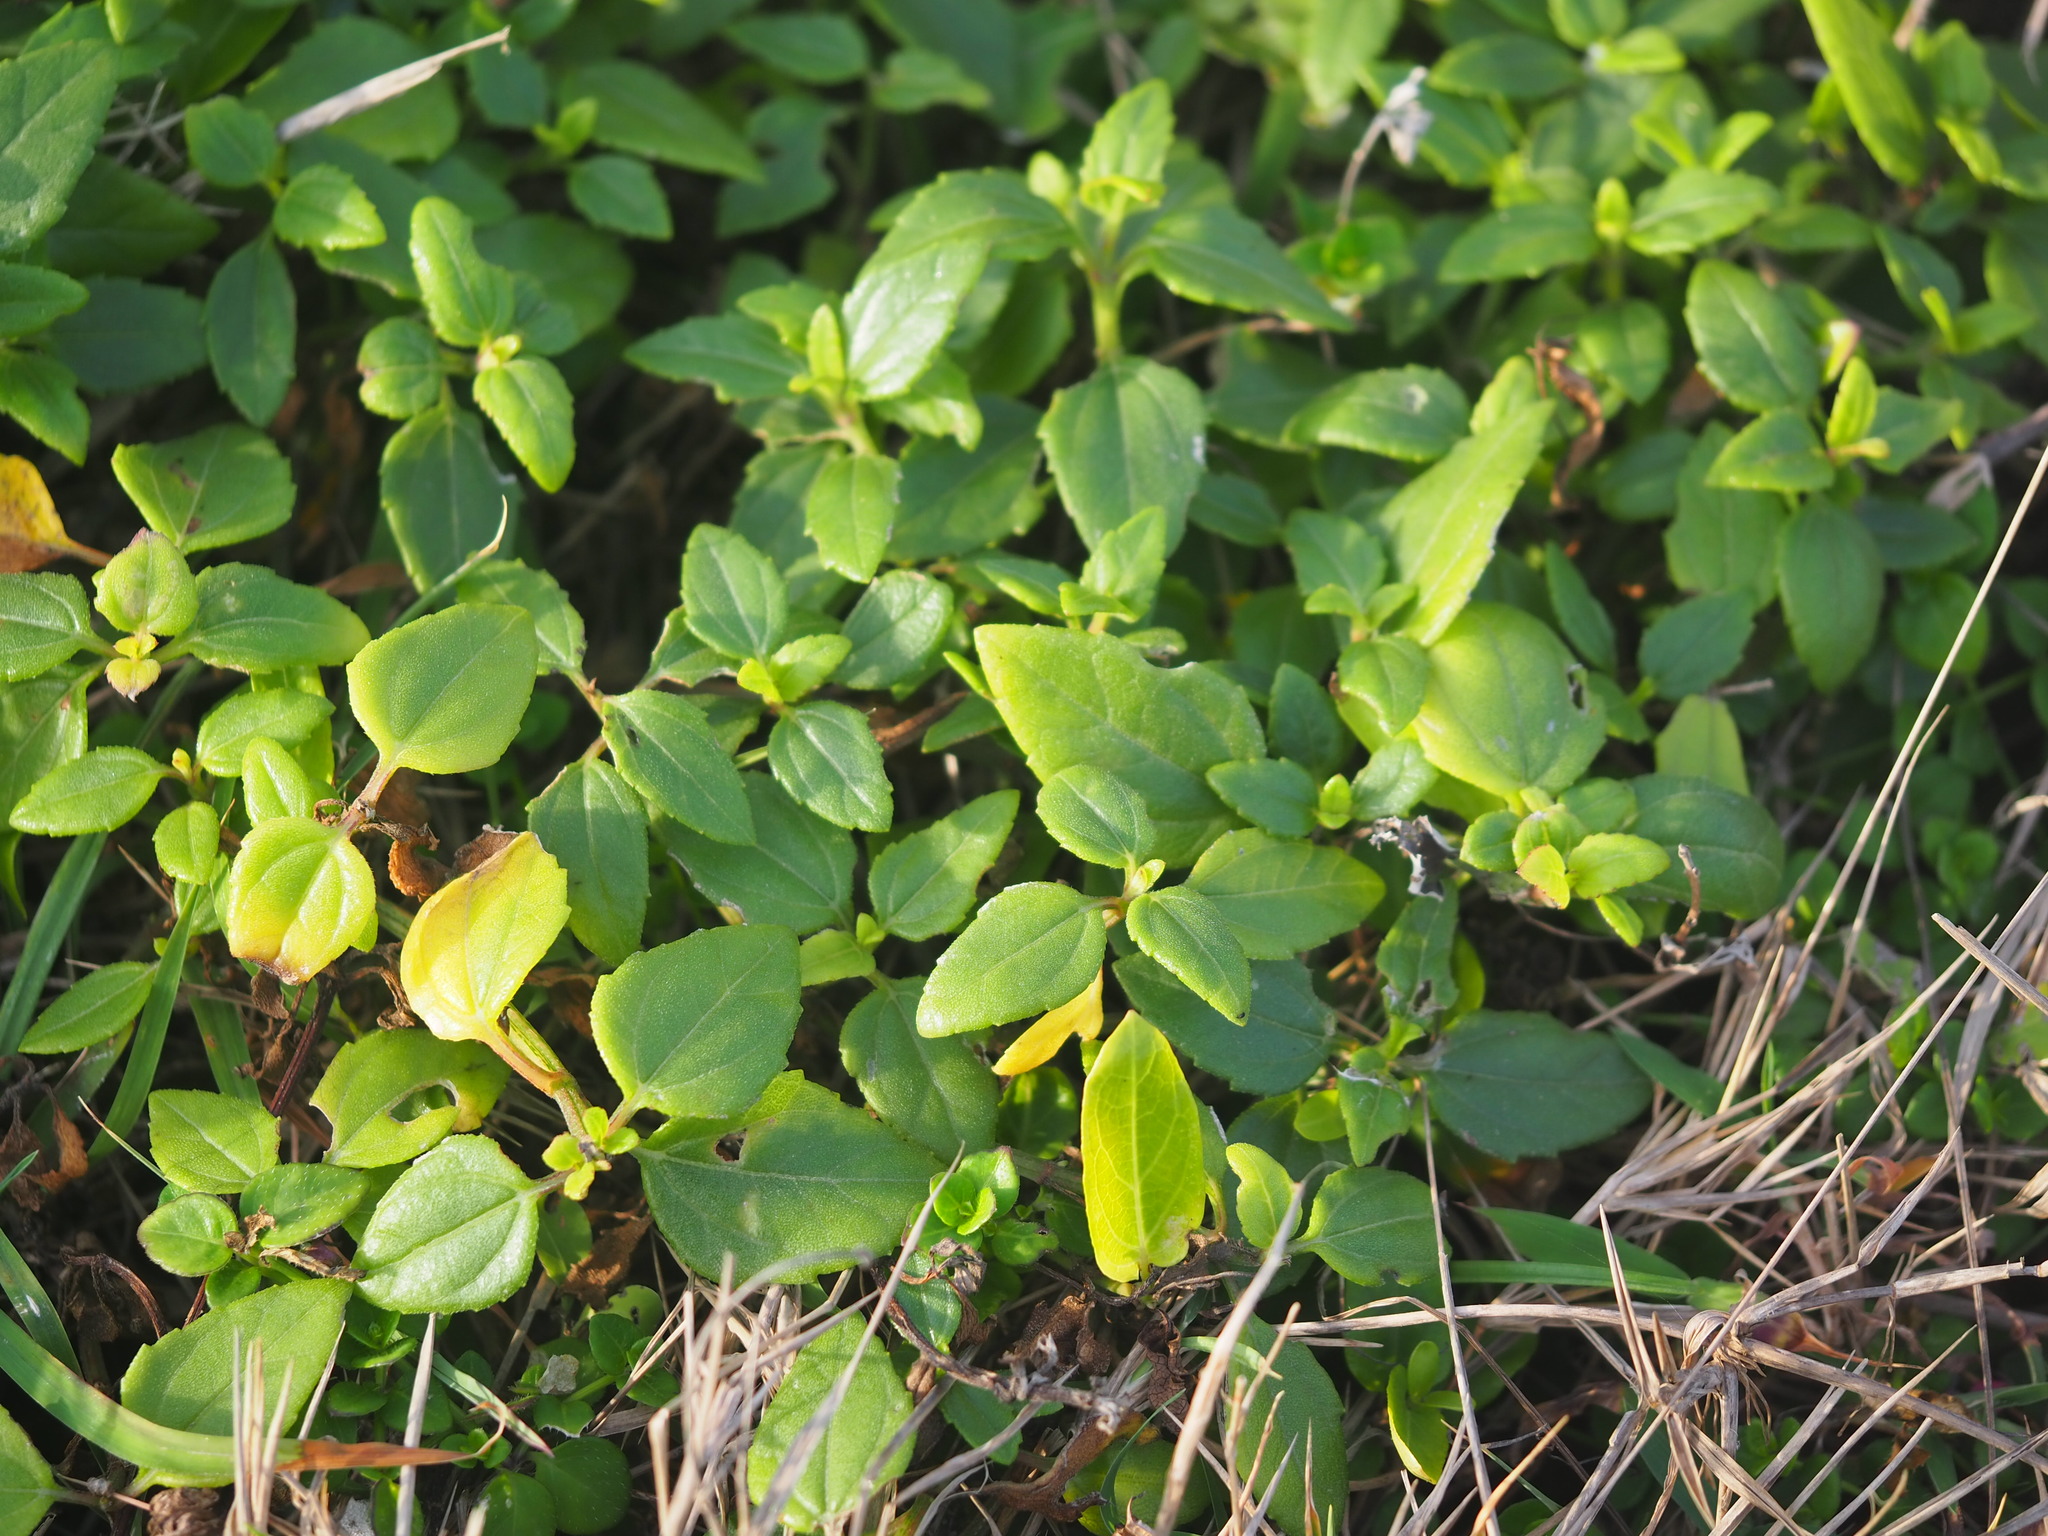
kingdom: Plantae
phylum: Tracheophyta
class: Magnoliopsida
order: Asterales
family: Asteraceae
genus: Melanthera
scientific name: Melanthera prostrata
